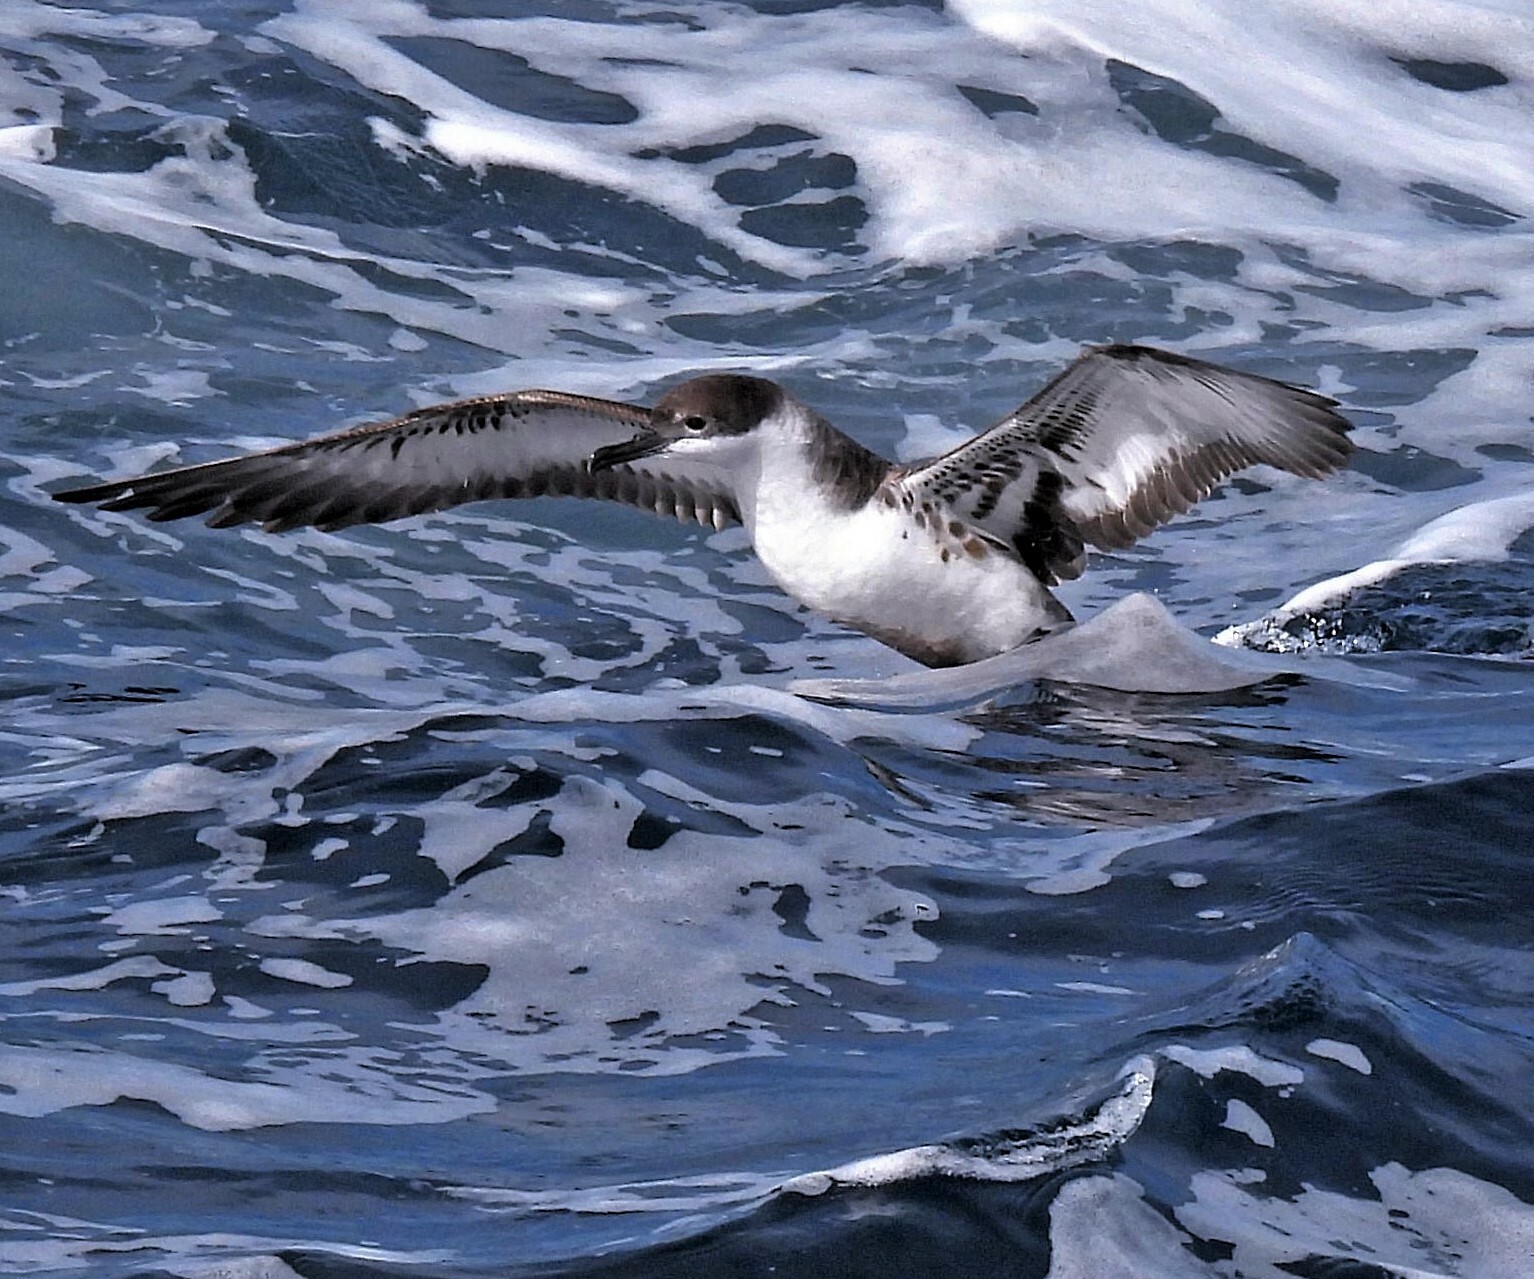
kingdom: Animalia
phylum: Chordata
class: Aves
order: Procellariiformes
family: Procellariidae
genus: Puffinus
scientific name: Puffinus gravis
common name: Great shearwater
